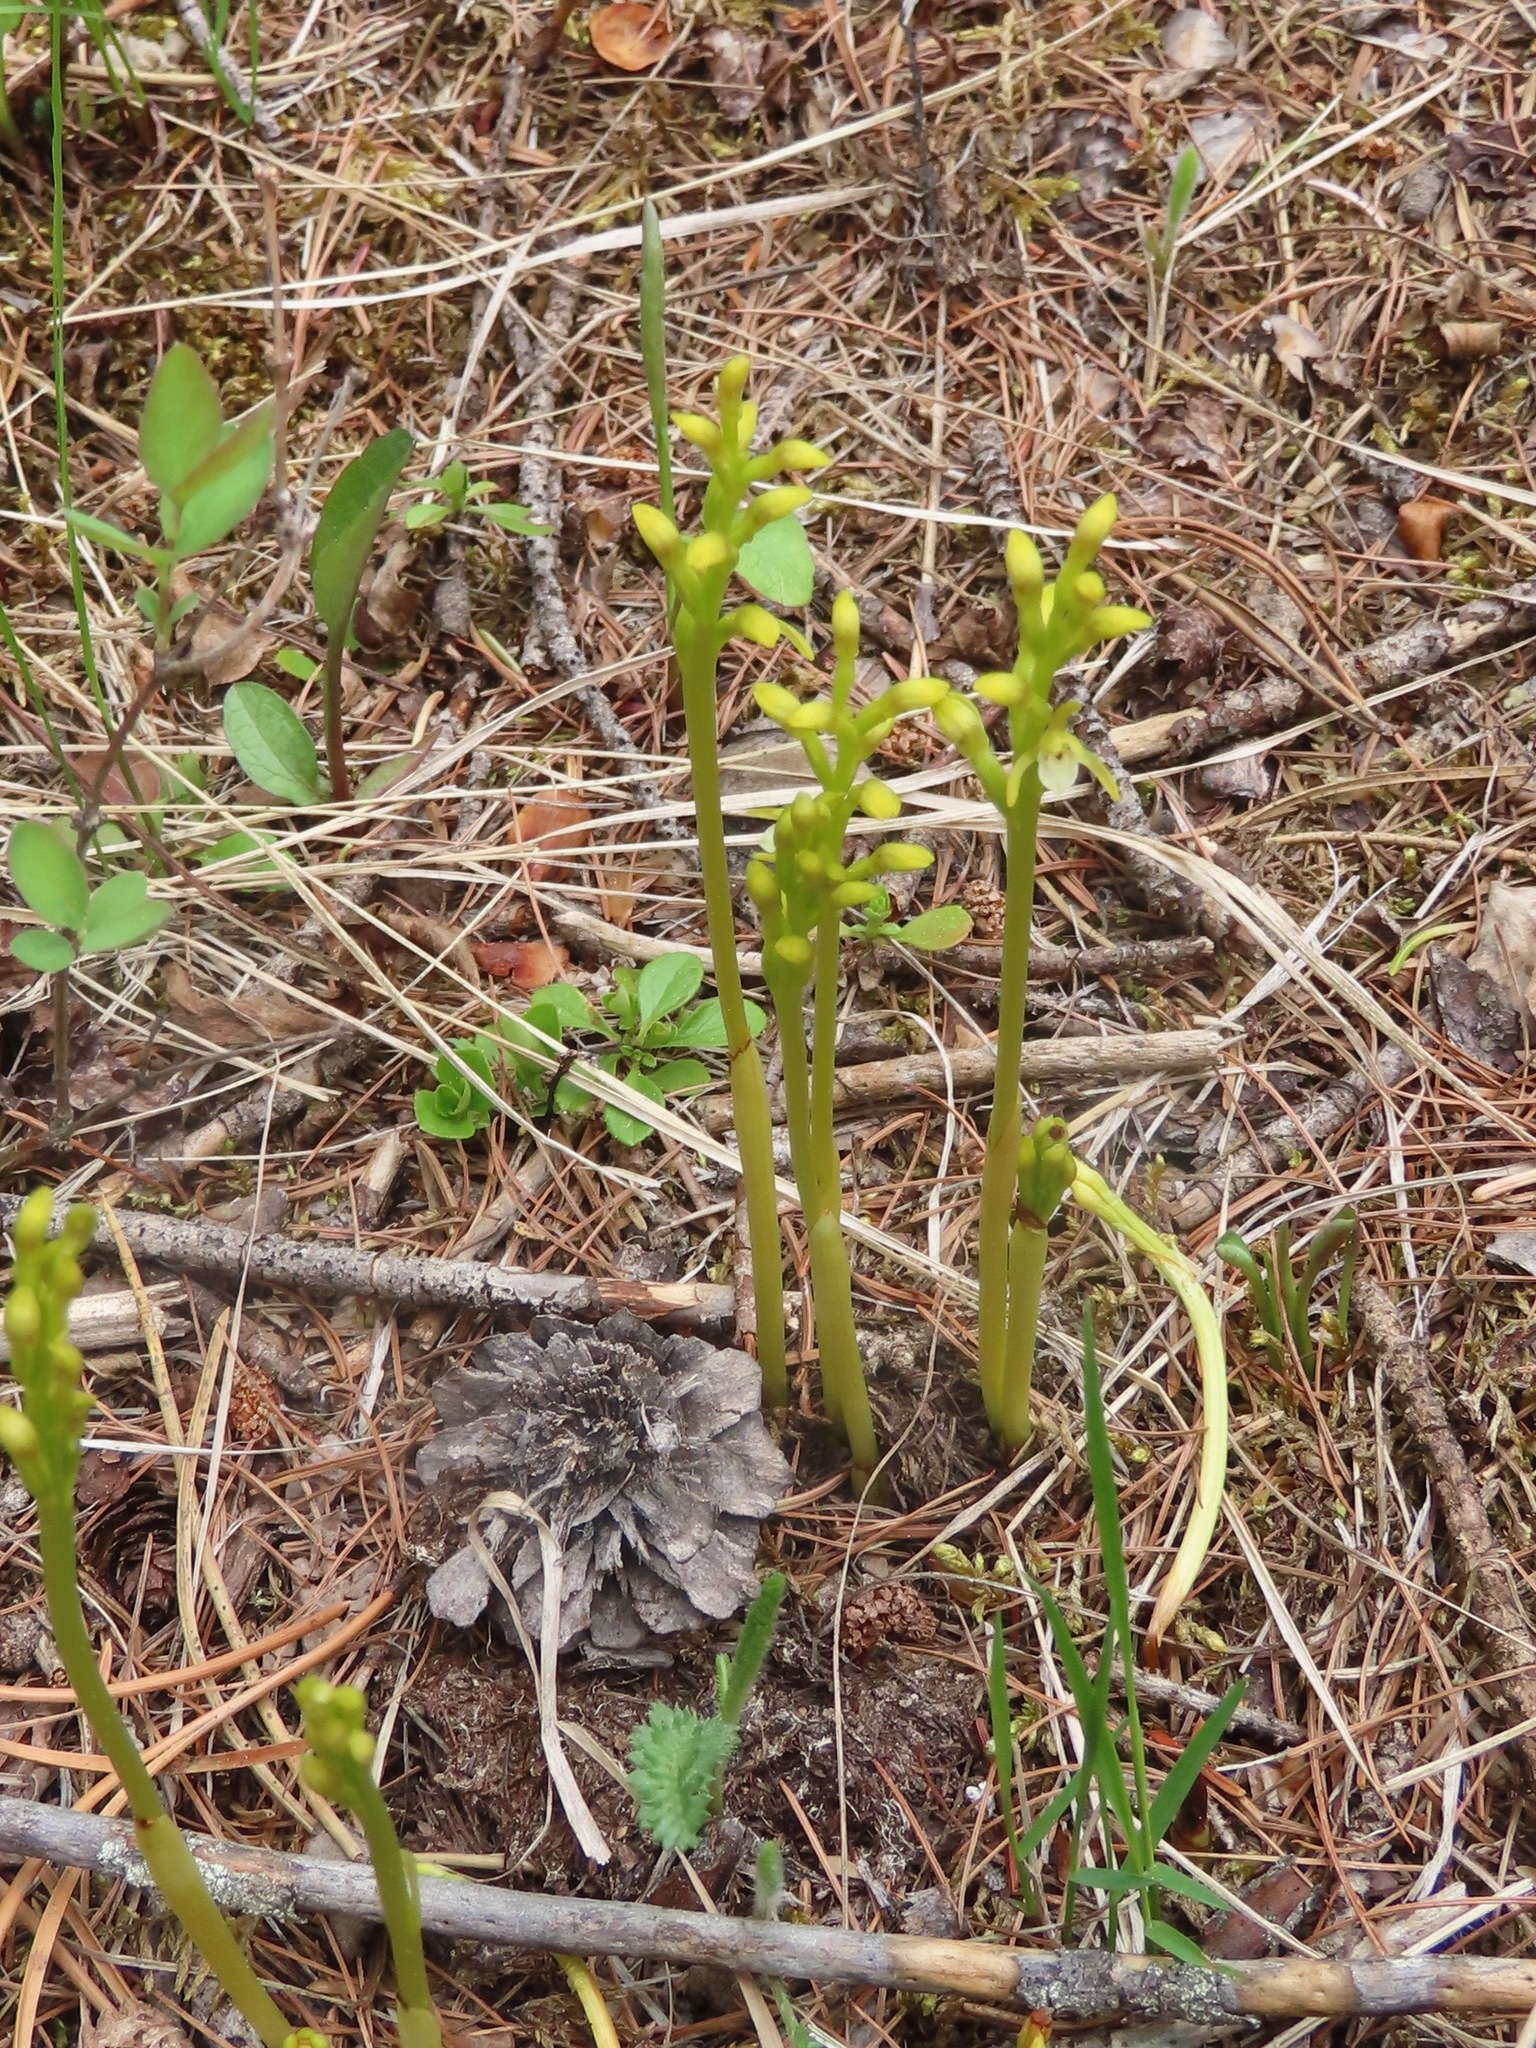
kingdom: Plantae
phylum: Tracheophyta
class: Liliopsida
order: Asparagales
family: Orchidaceae
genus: Corallorhiza
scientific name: Corallorhiza trifida
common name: Yellow coralroot
